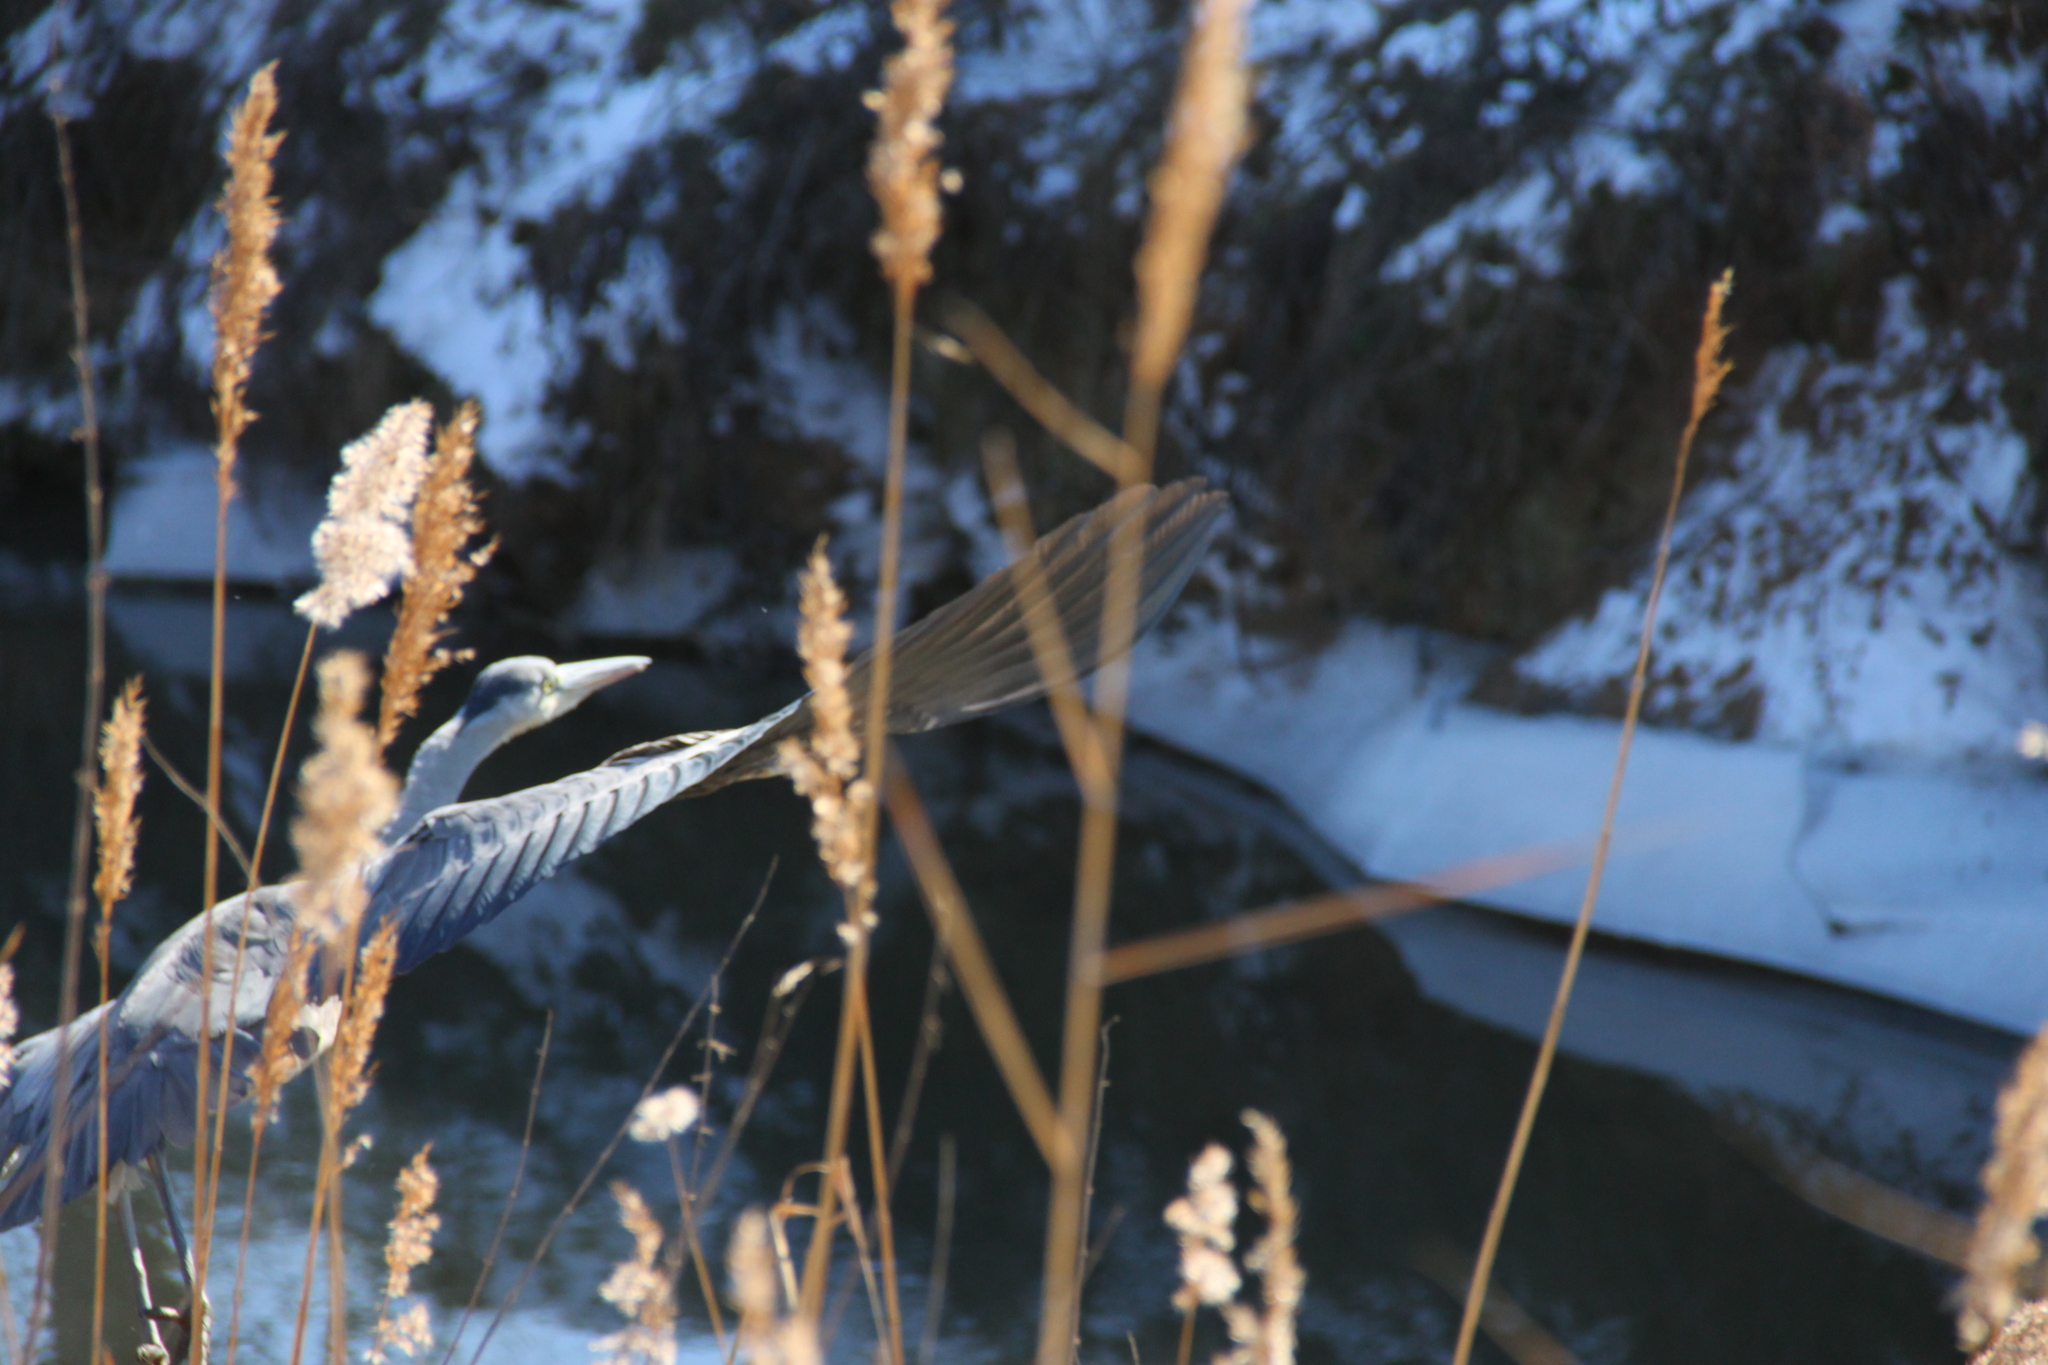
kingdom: Animalia
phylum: Chordata
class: Aves
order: Pelecaniformes
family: Ardeidae
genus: Ardea
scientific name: Ardea cinerea
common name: Grey heron
